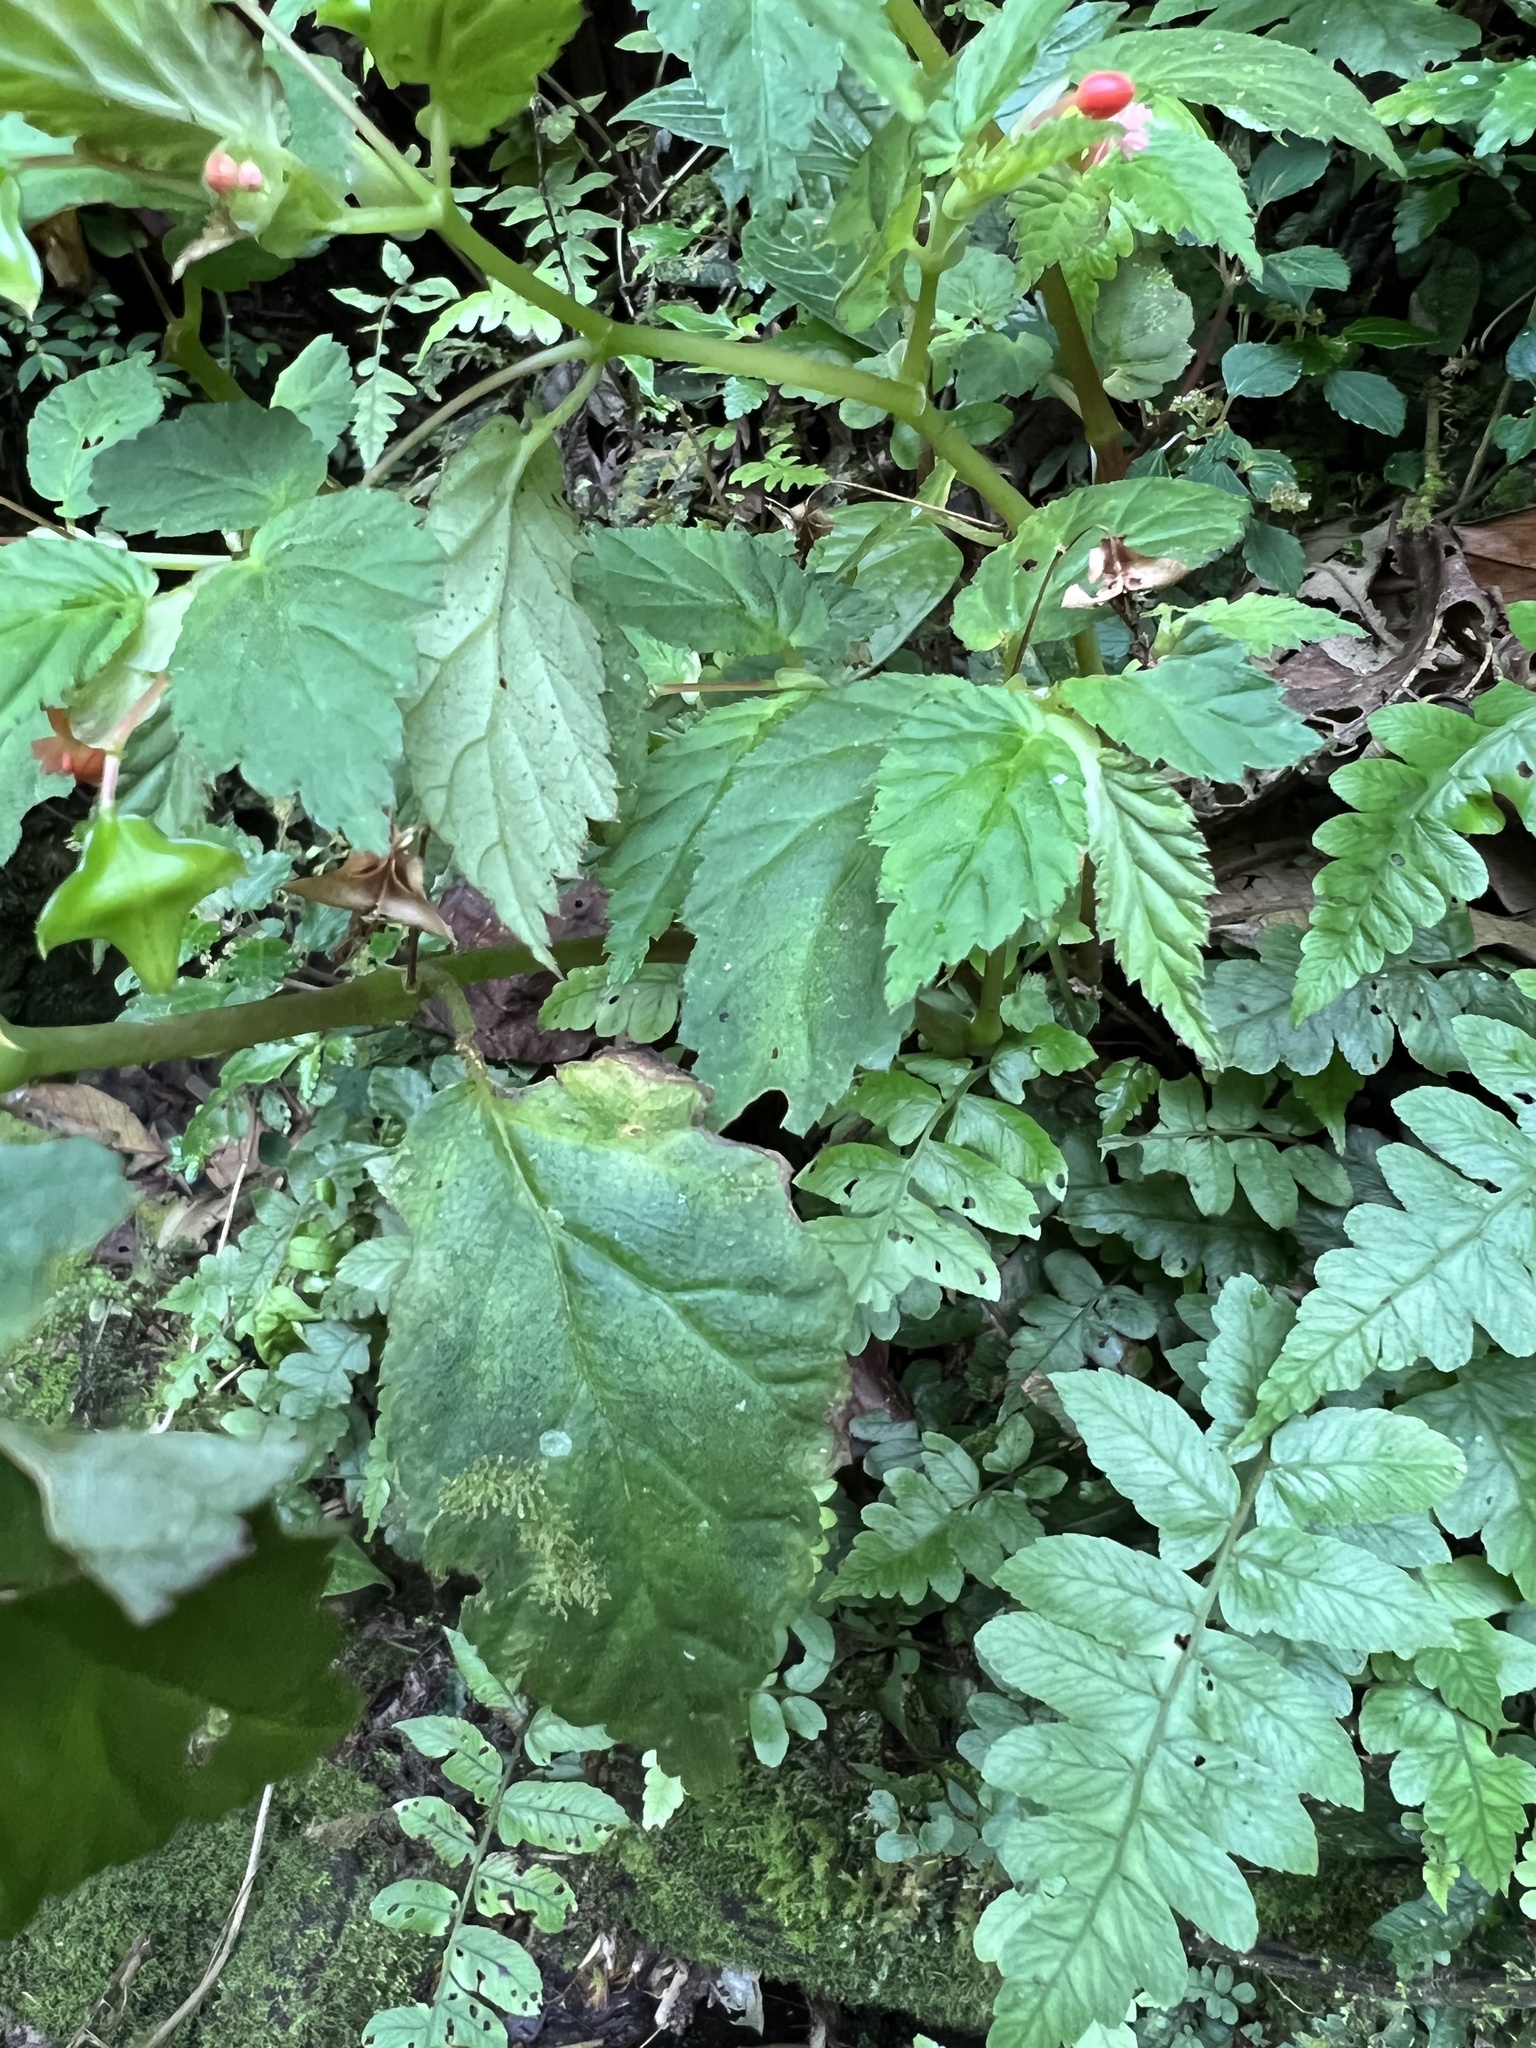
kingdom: Plantae
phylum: Tracheophyta
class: Magnoliopsida
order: Cucurbitales
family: Begoniaceae
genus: Begonia
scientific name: Begonia urticae
